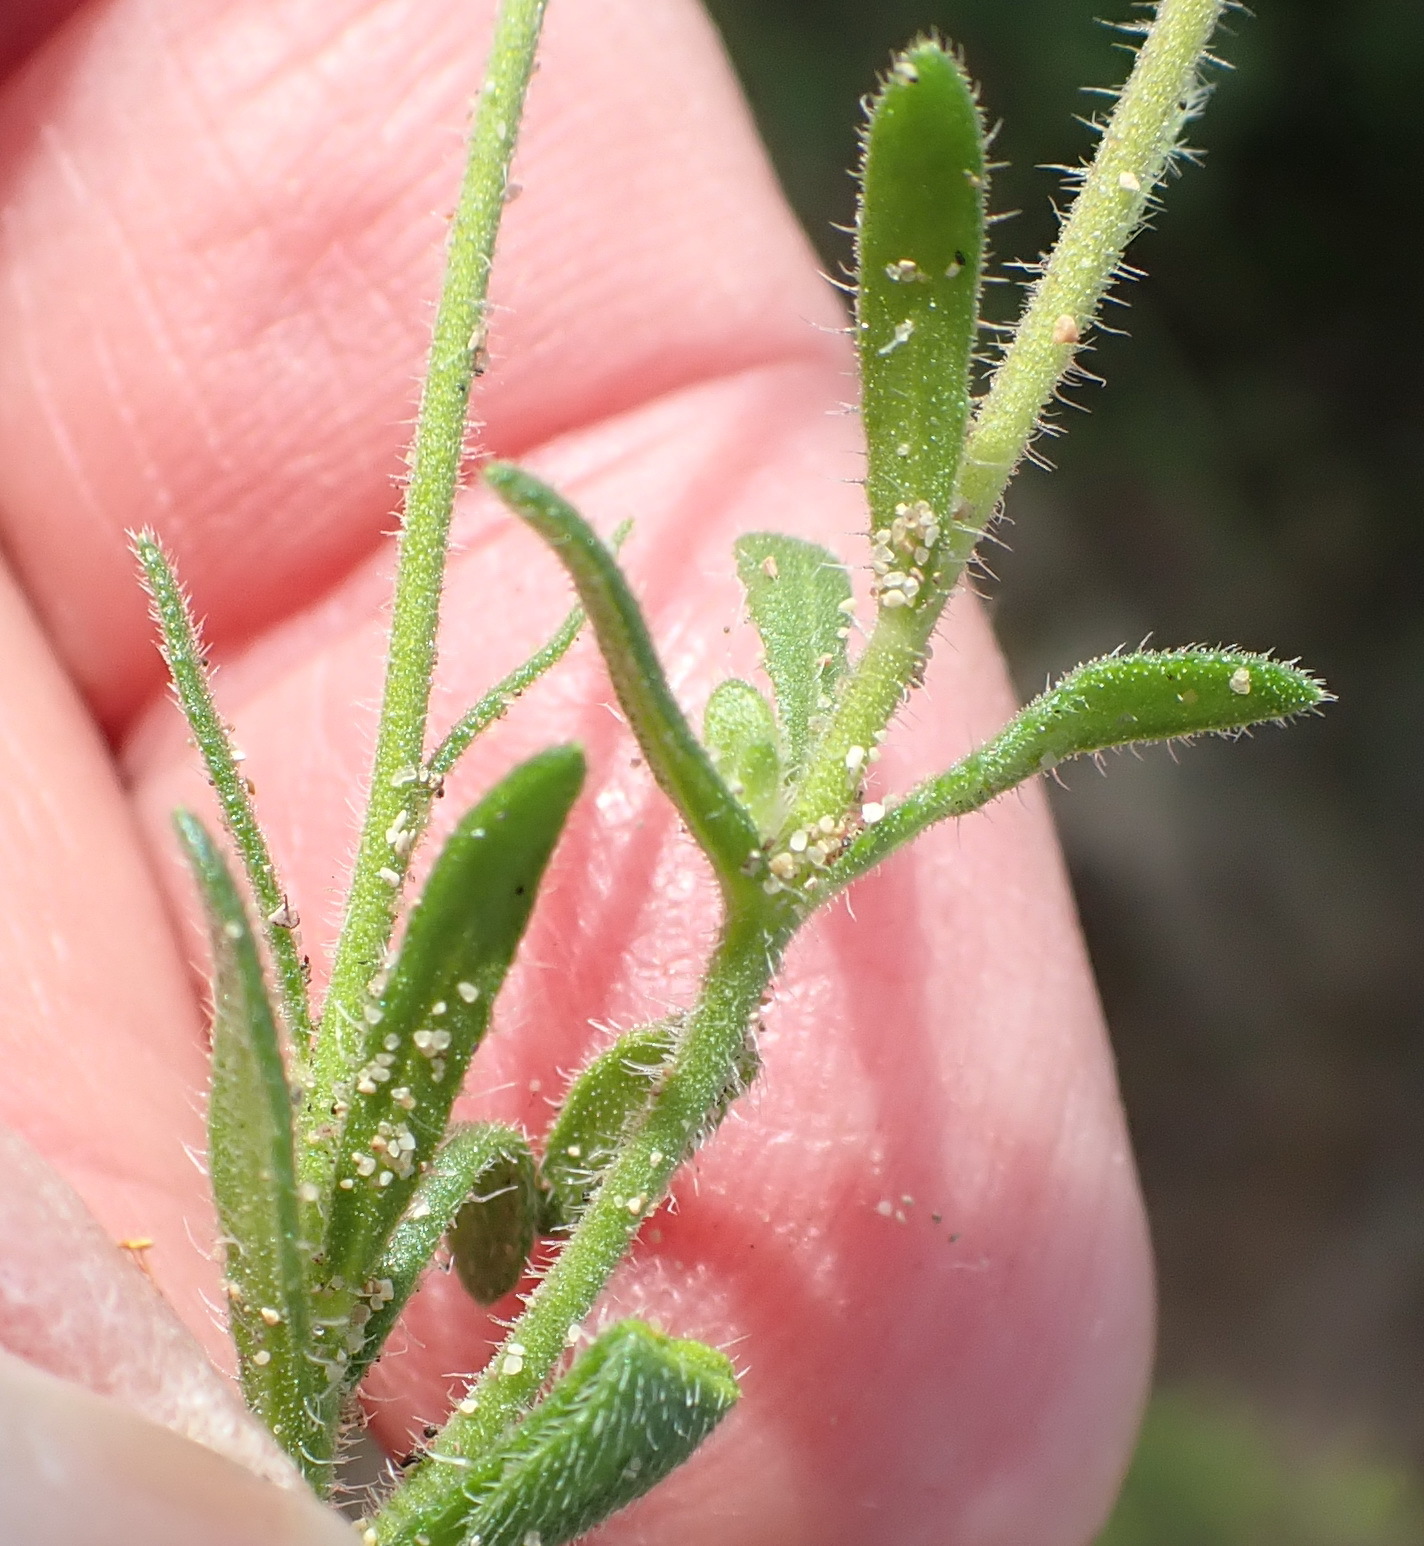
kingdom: Plantae
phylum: Tracheophyta
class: Magnoliopsida
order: Asterales
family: Asteraceae
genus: Felicia
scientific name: Felicia amoena
